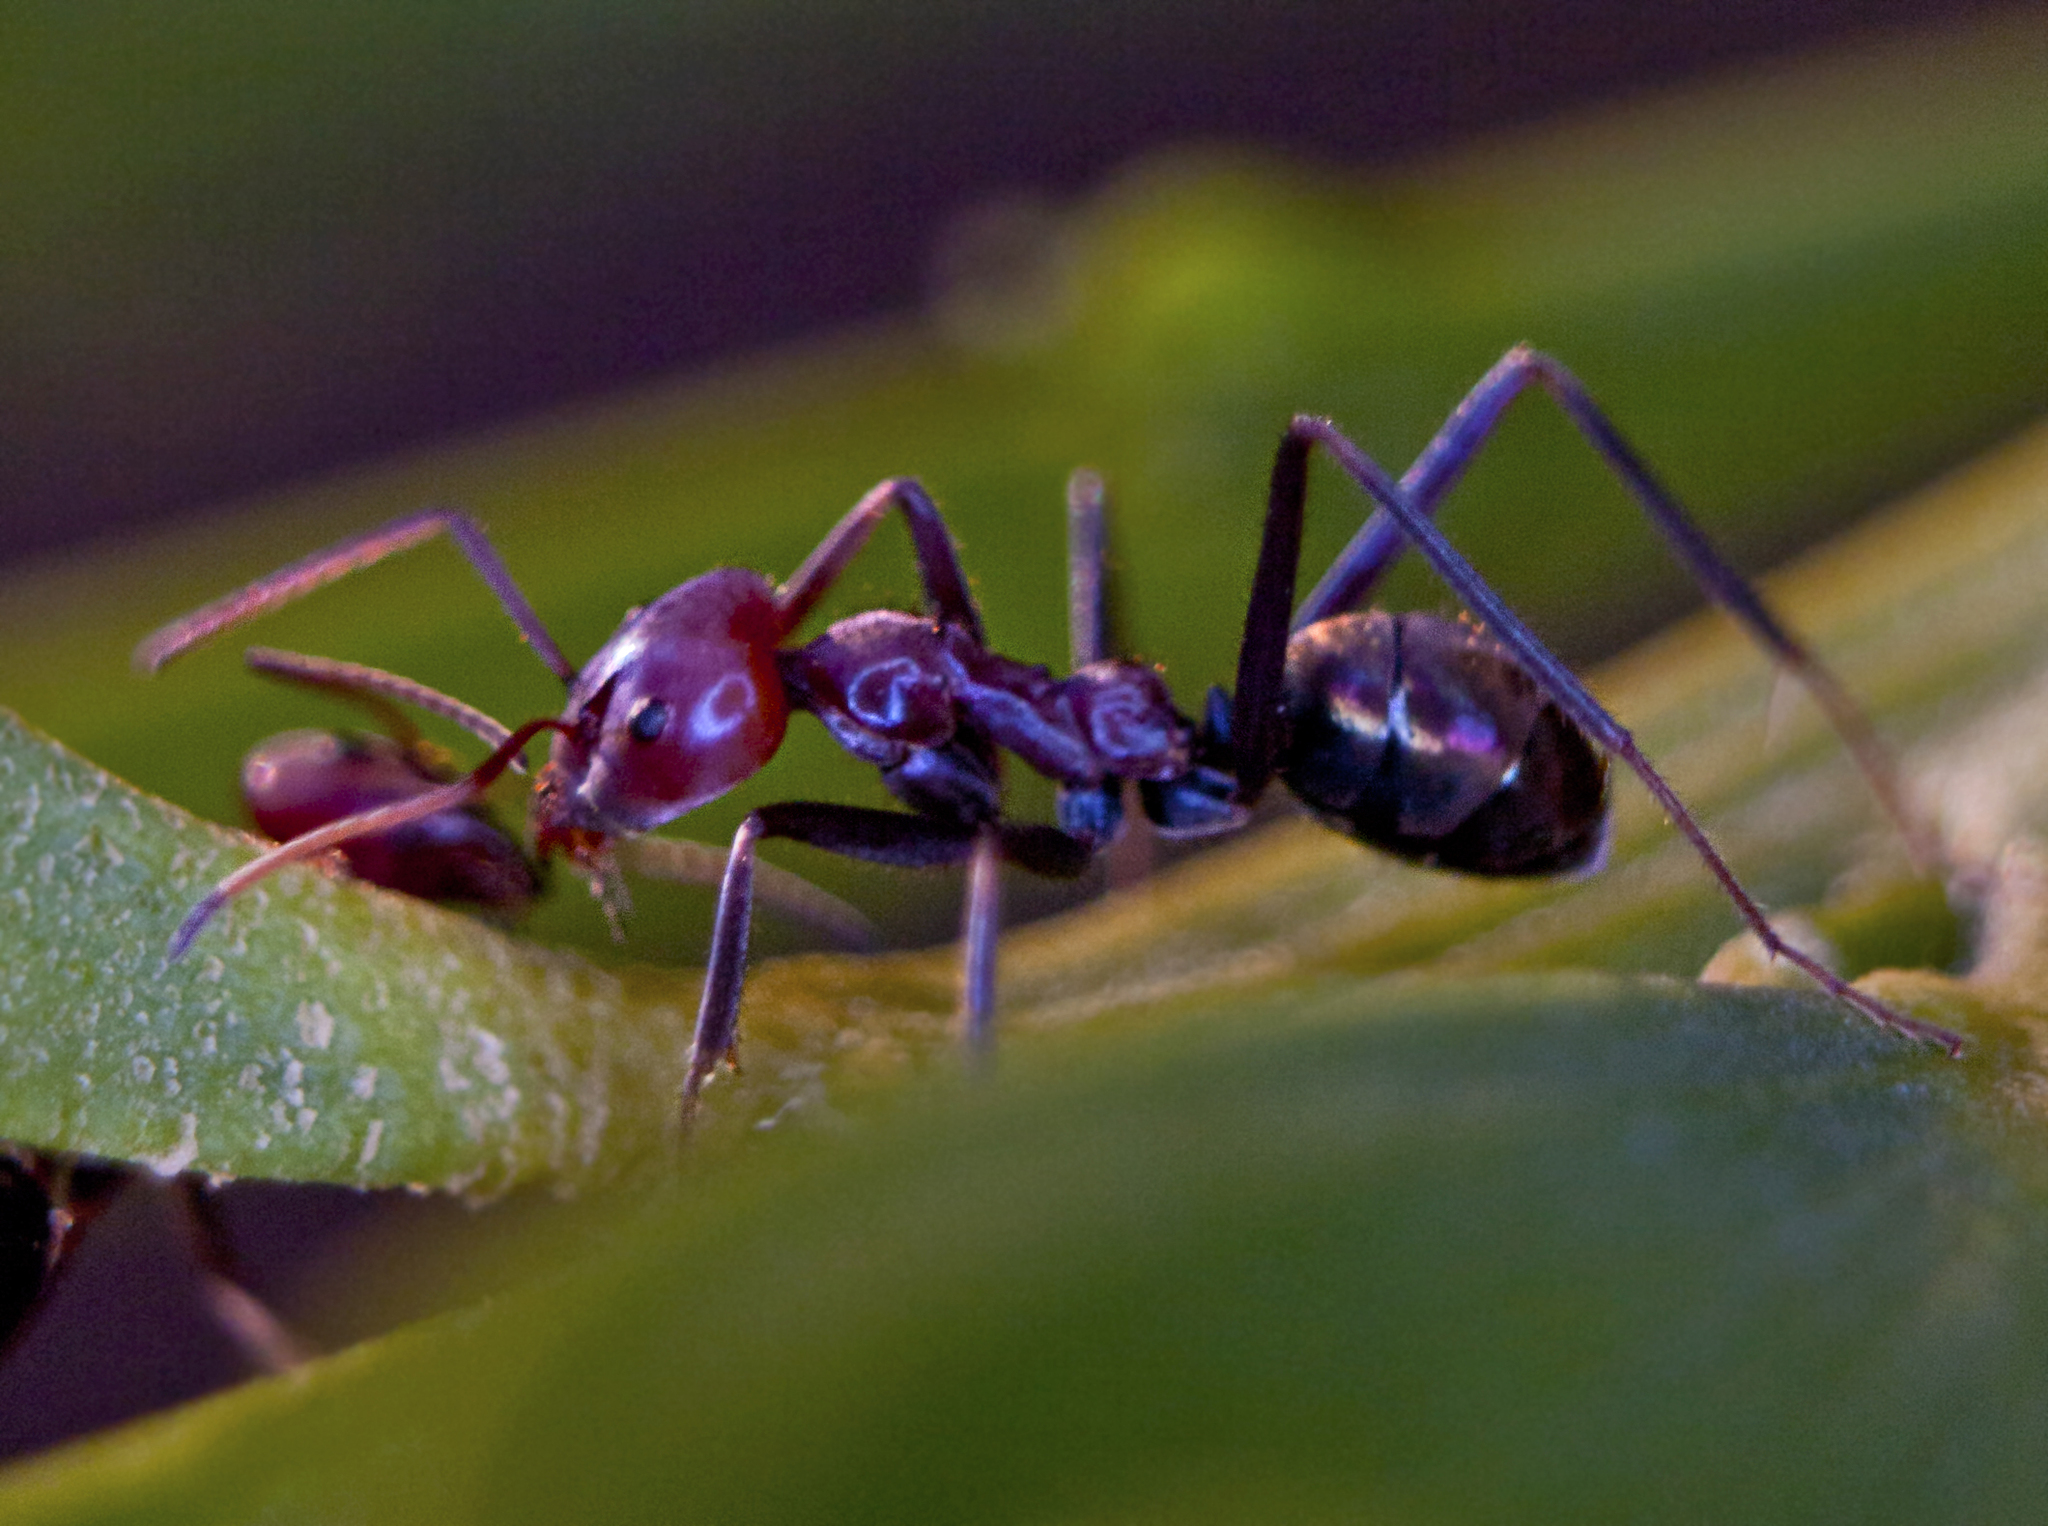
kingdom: Animalia
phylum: Arthropoda
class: Insecta
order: Hymenoptera
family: Formicidae
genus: Iridomyrmex
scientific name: Iridomyrmex purpureus
